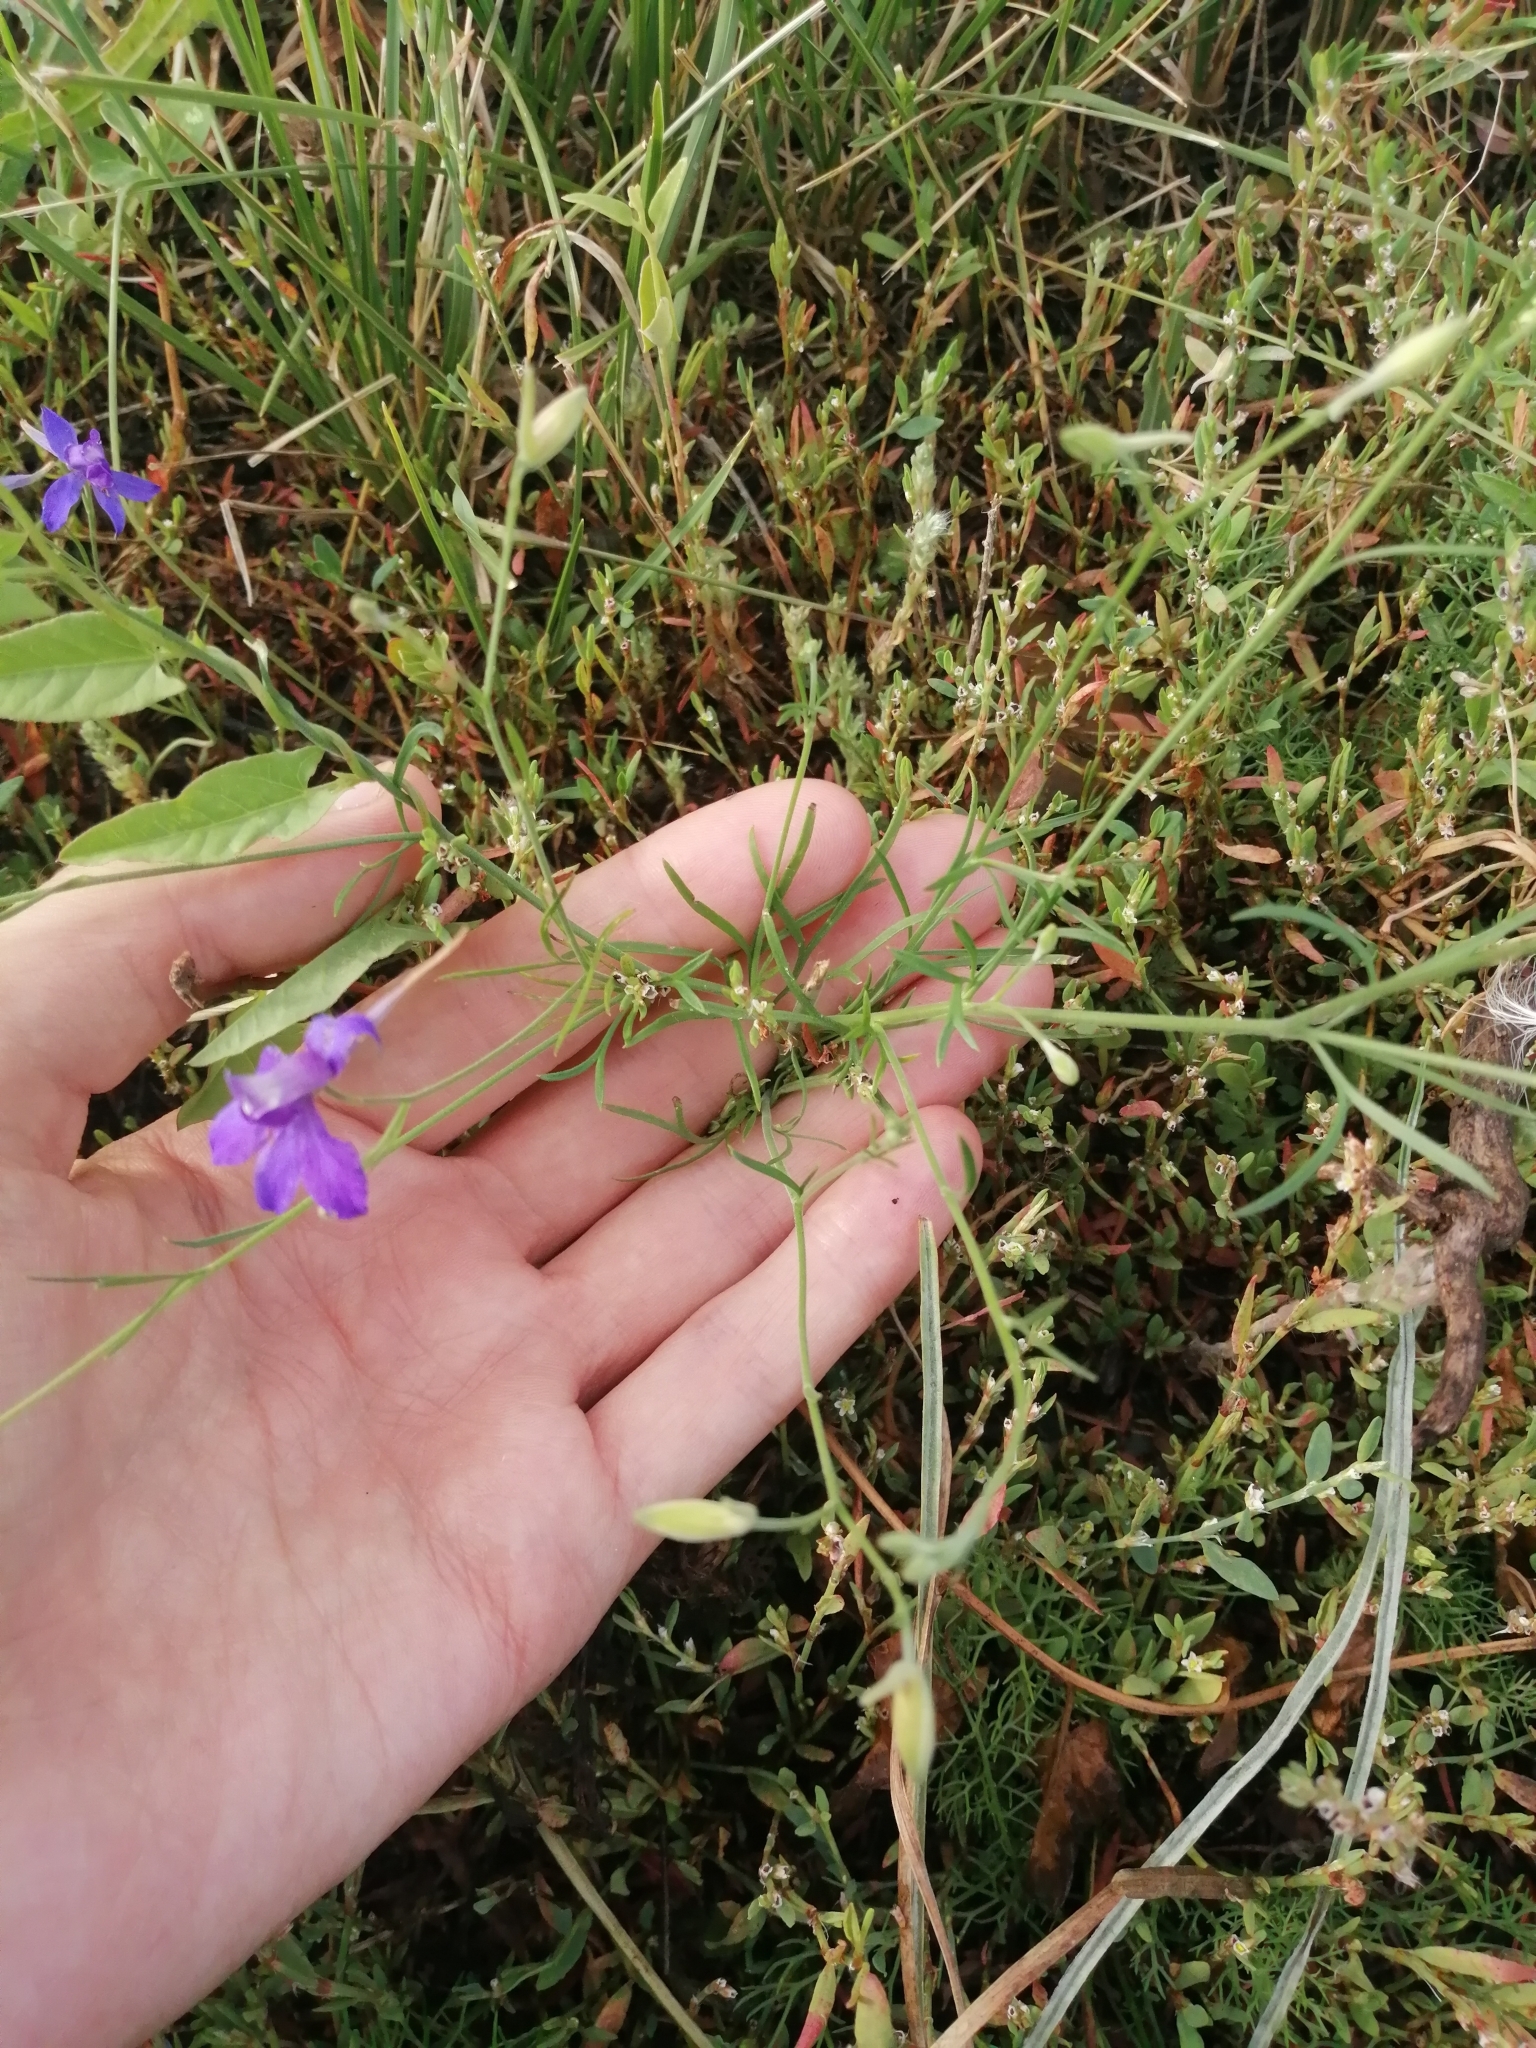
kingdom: Plantae
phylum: Tracheophyta
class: Magnoliopsida
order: Ranunculales
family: Ranunculaceae
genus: Delphinium
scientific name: Delphinium consolida
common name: Branching larkspur
